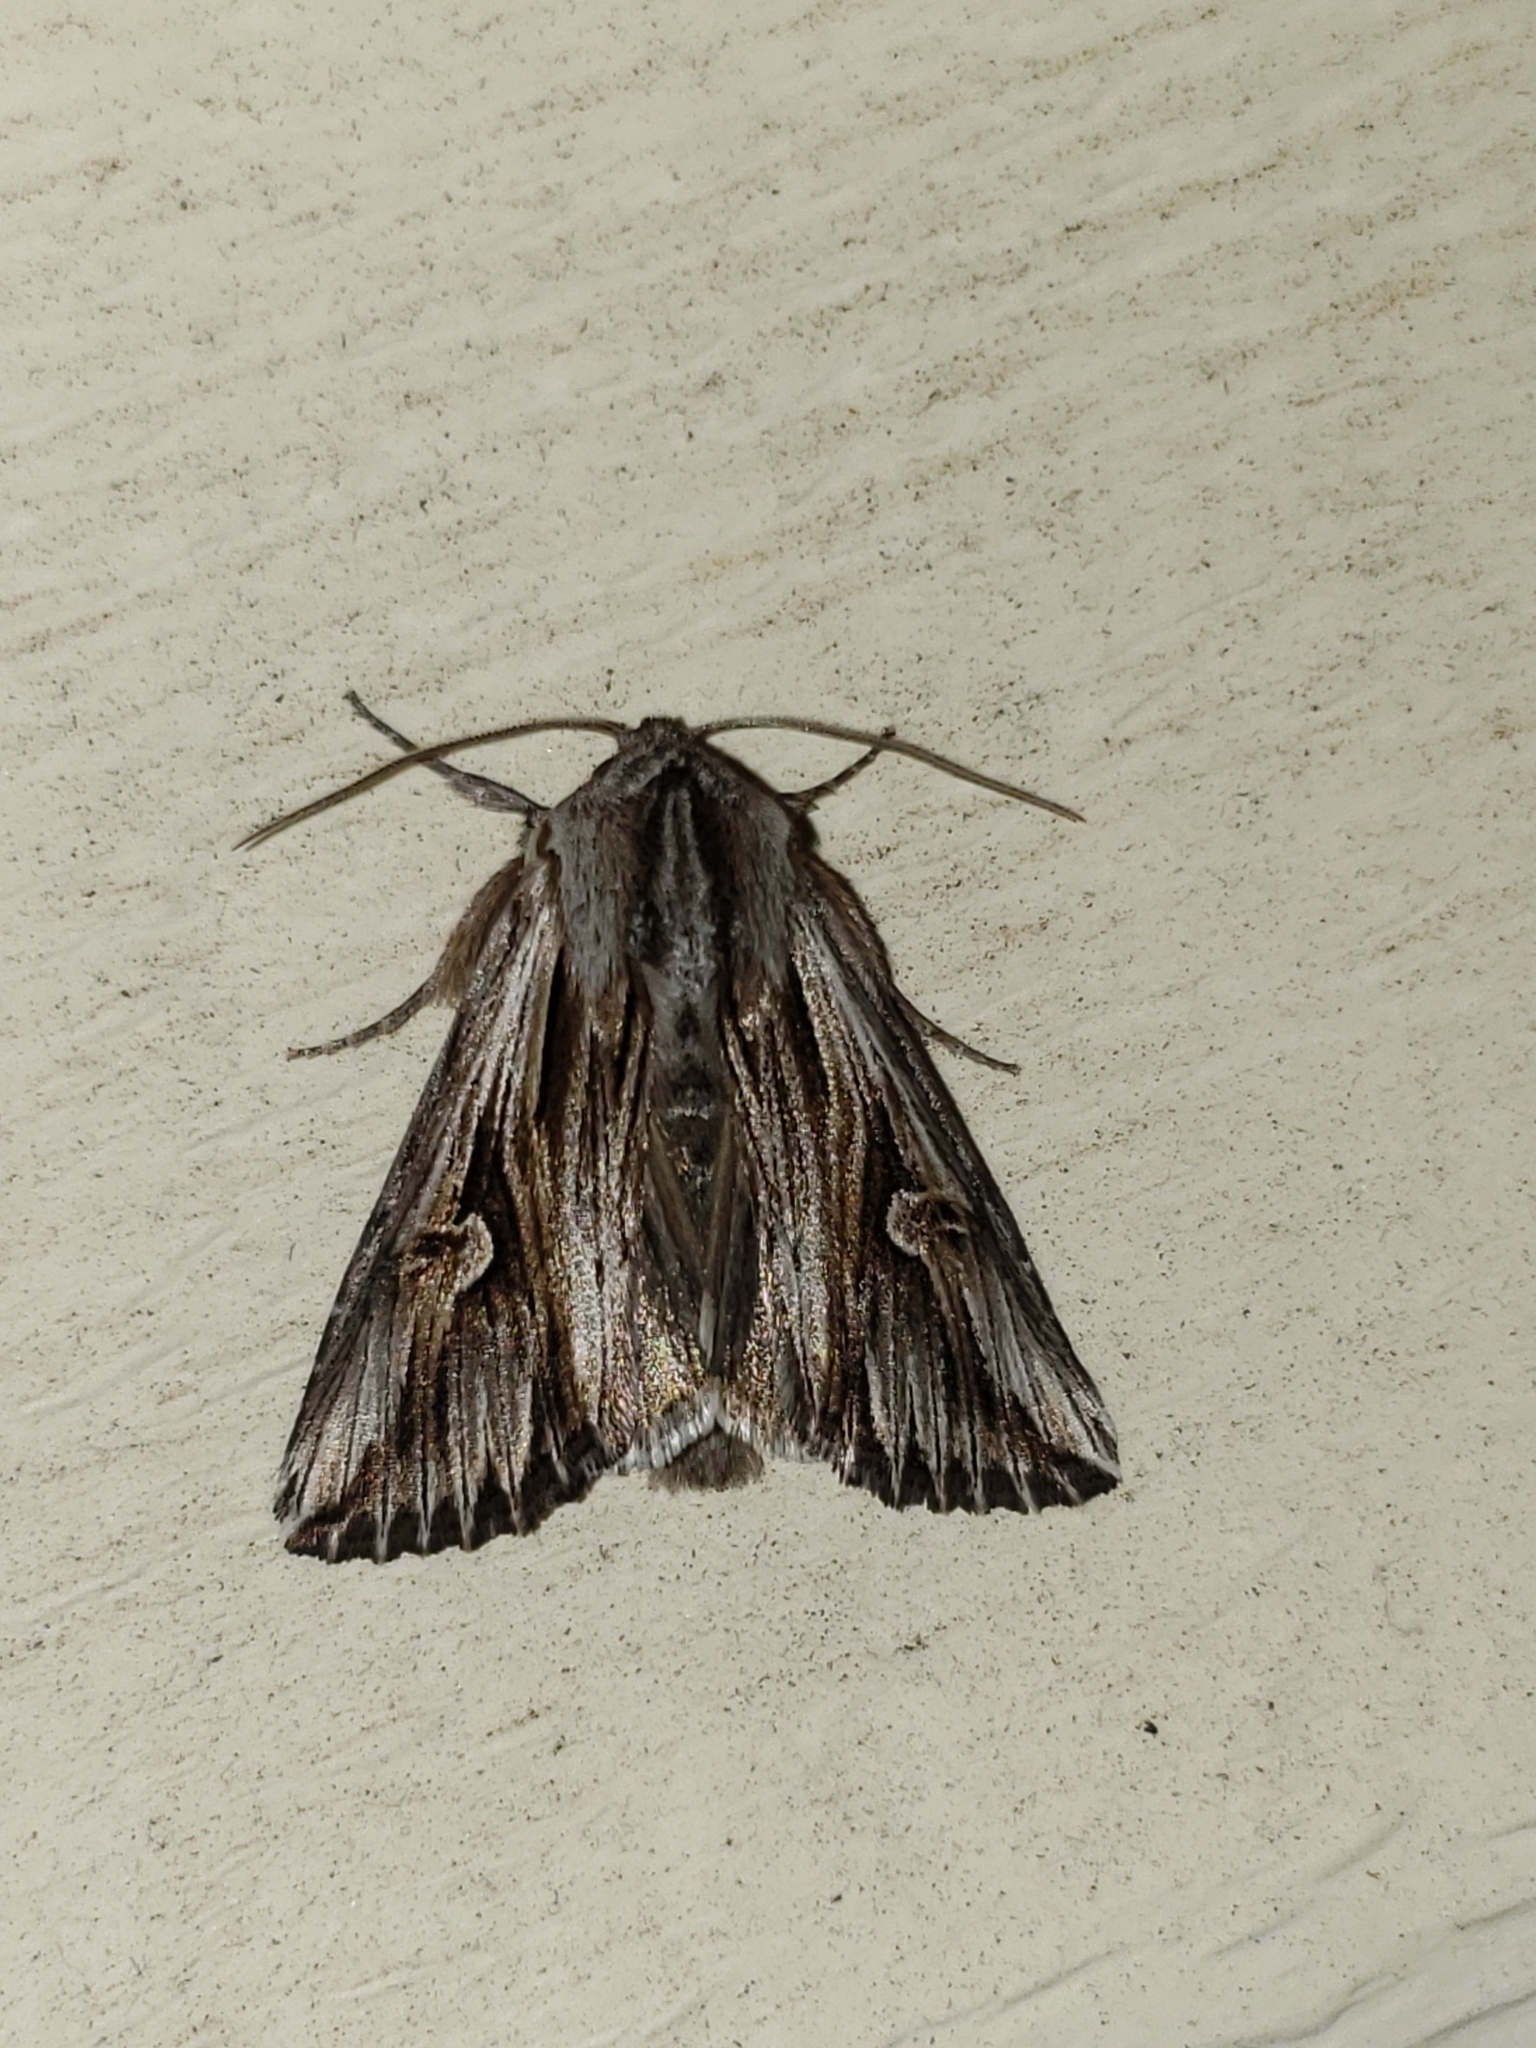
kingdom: Animalia
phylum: Arthropoda
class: Insecta
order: Lepidoptera
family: Noctuidae
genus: Nedra
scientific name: Nedra ramosula
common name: Gray half-spot
